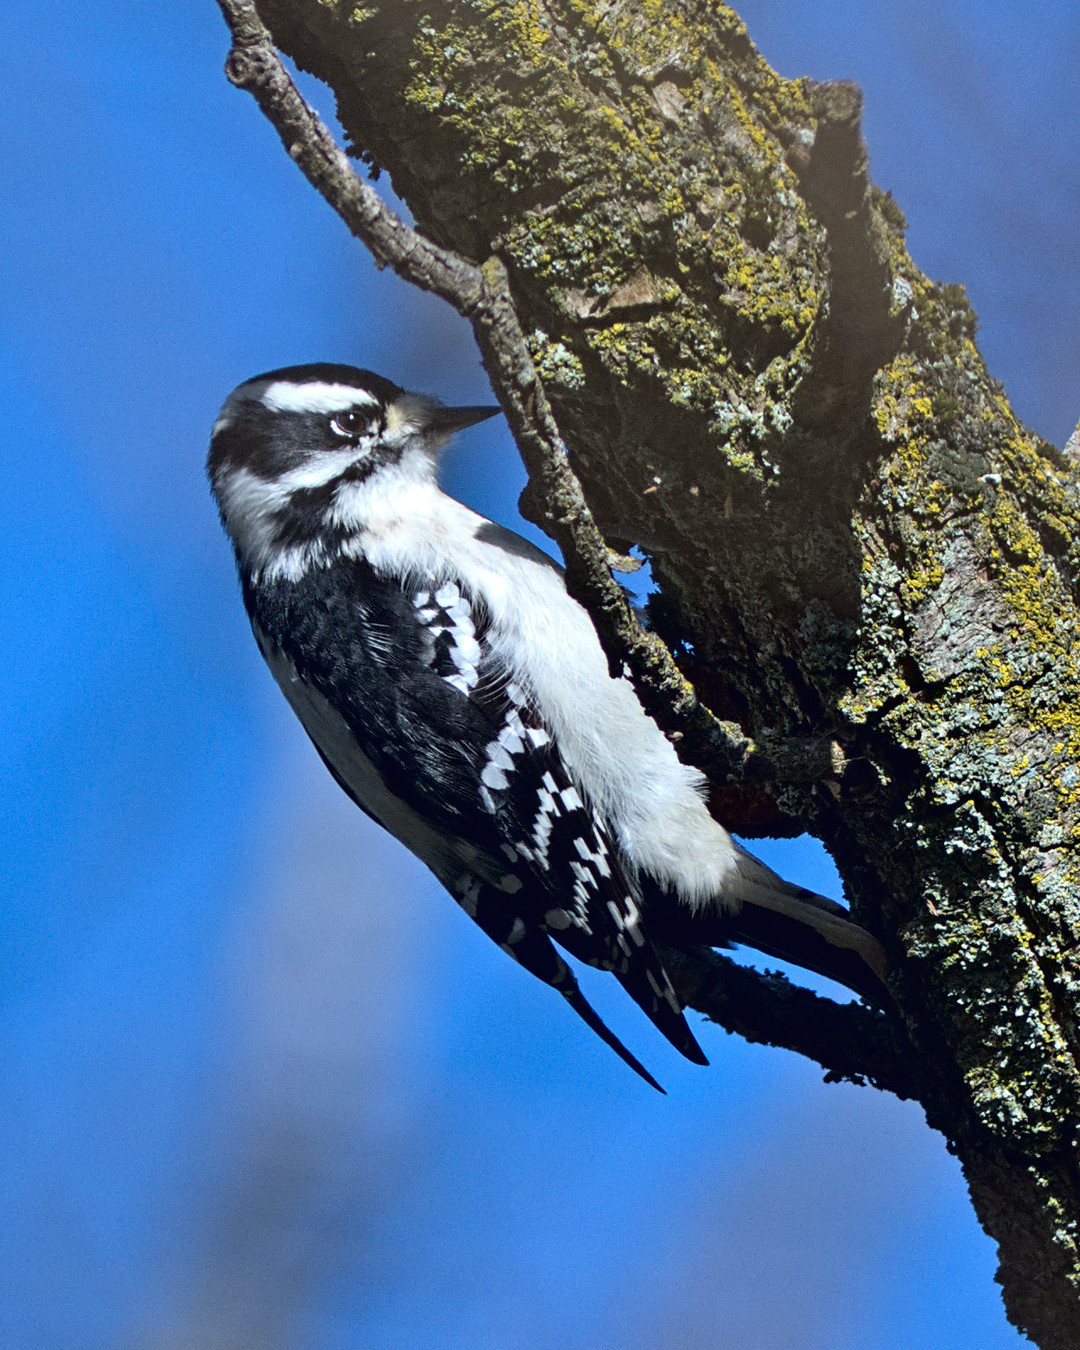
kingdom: Animalia
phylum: Chordata
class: Aves
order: Piciformes
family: Picidae
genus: Dryobates
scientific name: Dryobates pubescens
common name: Downy woodpecker
